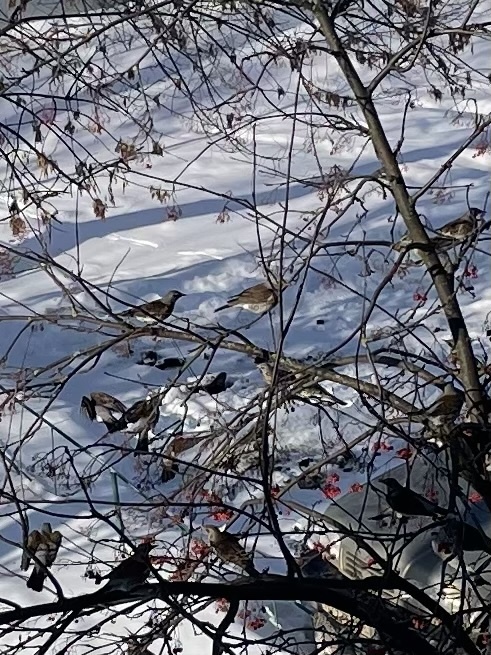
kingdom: Animalia
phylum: Chordata
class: Aves
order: Passeriformes
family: Turdidae
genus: Turdus
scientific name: Turdus pilaris
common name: Fieldfare
